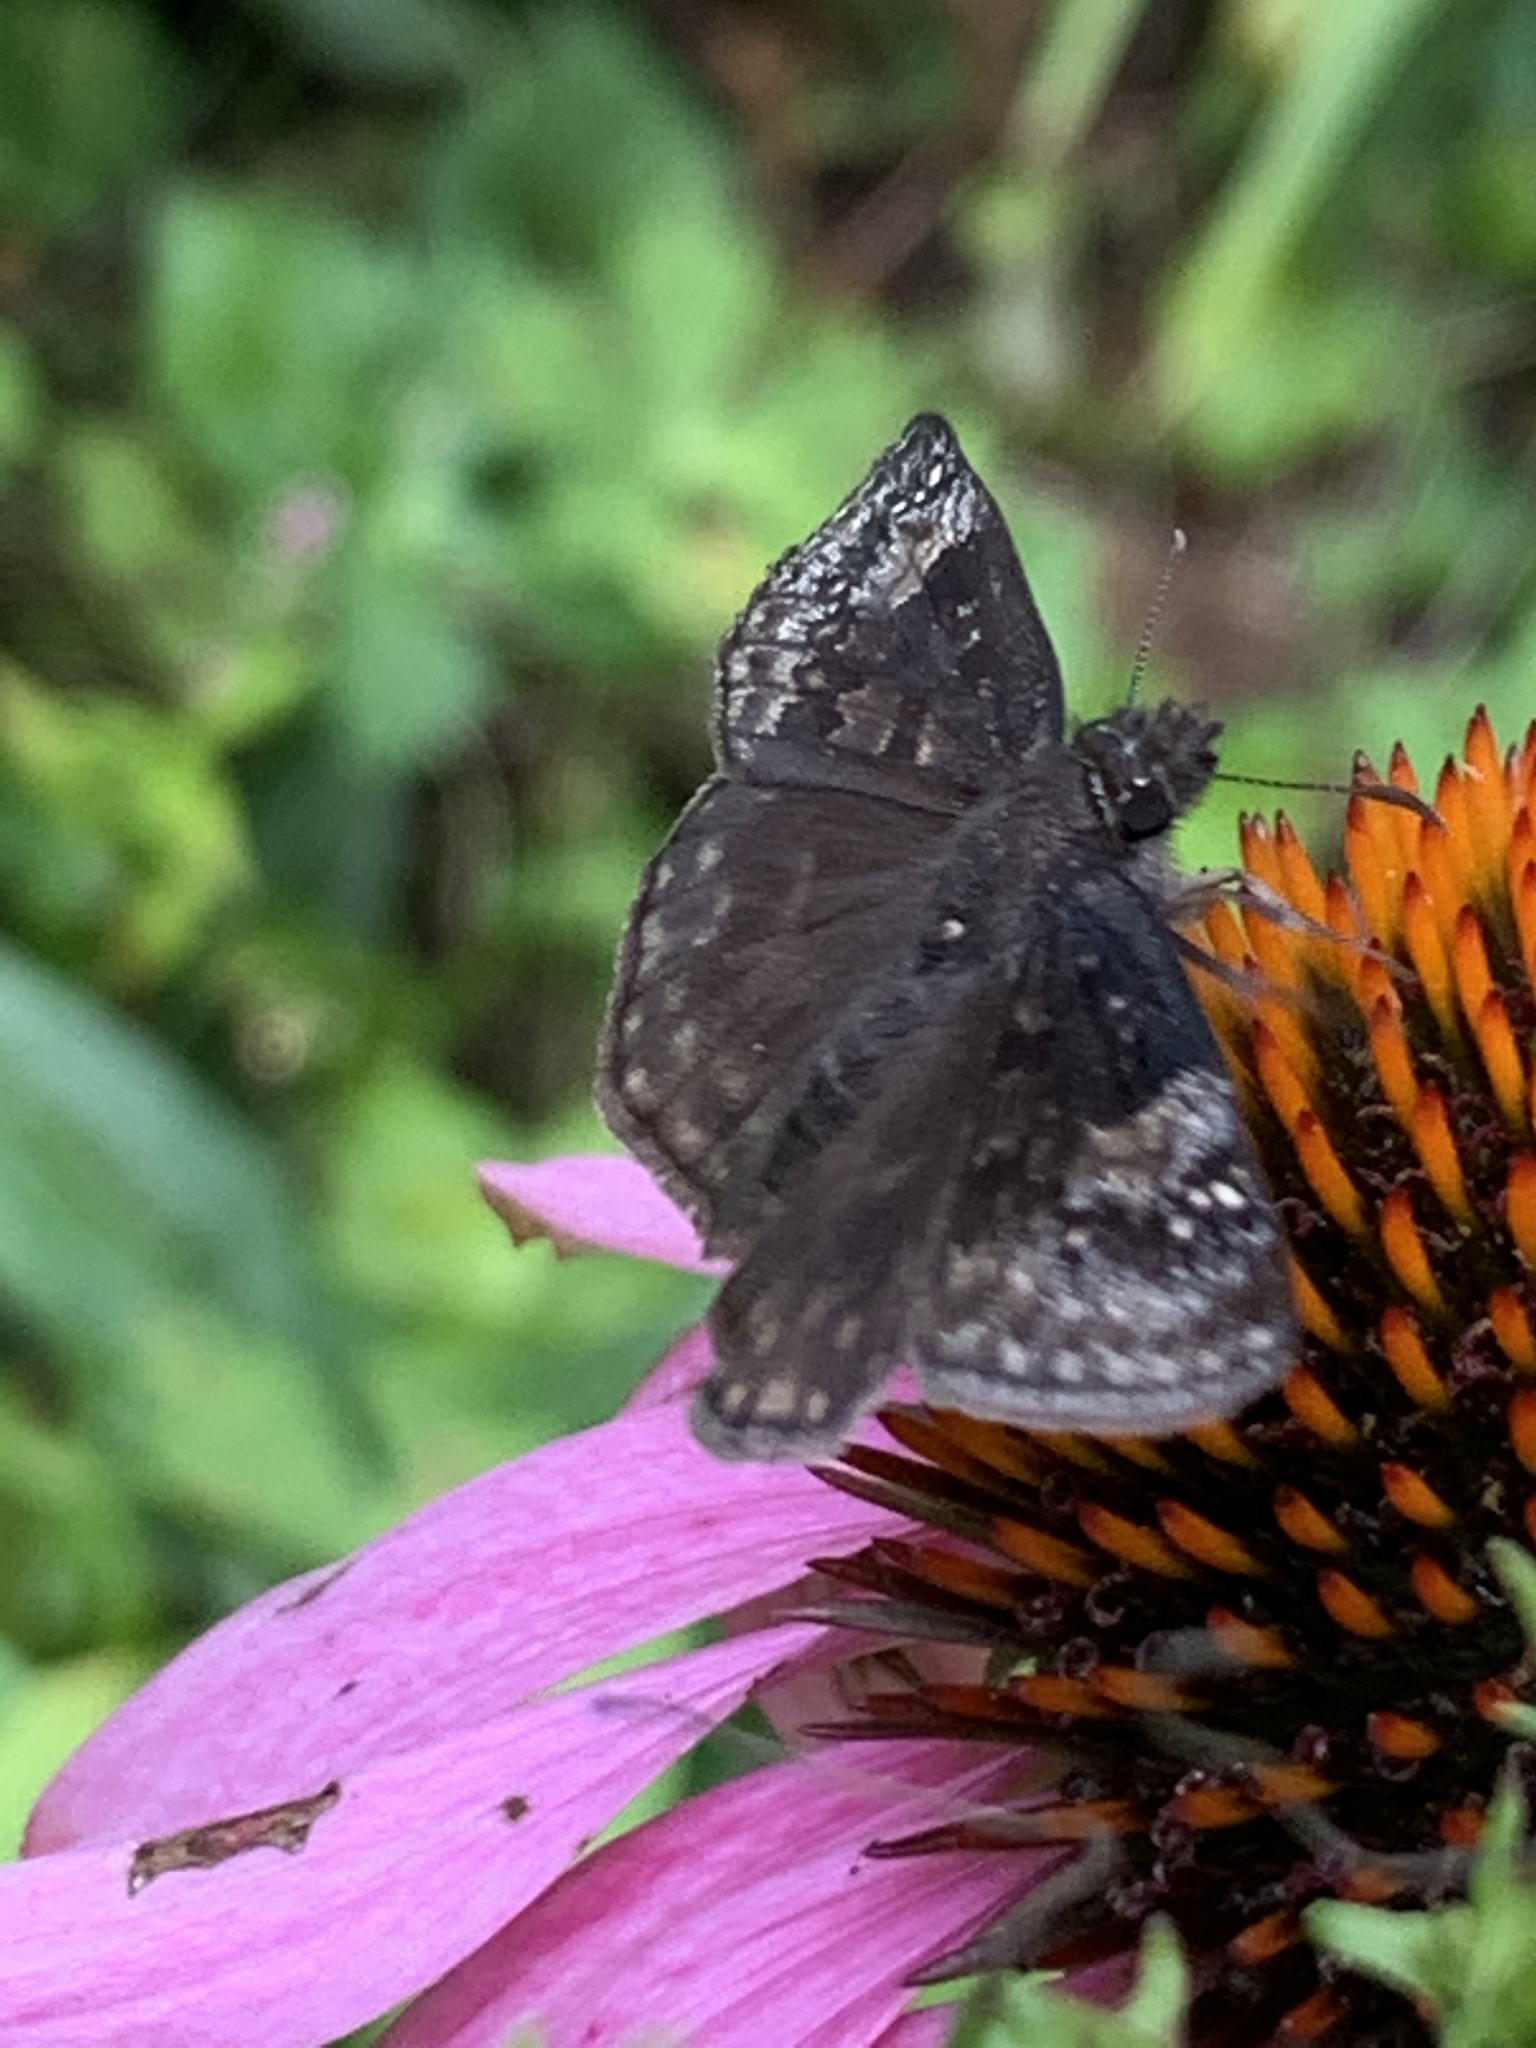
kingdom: Animalia
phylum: Arthropoda
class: Insecta
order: Lepidoptera
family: Hesperiidae
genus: Erynnis
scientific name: Erynnis baptisiae
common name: Wild indigo duskywing
